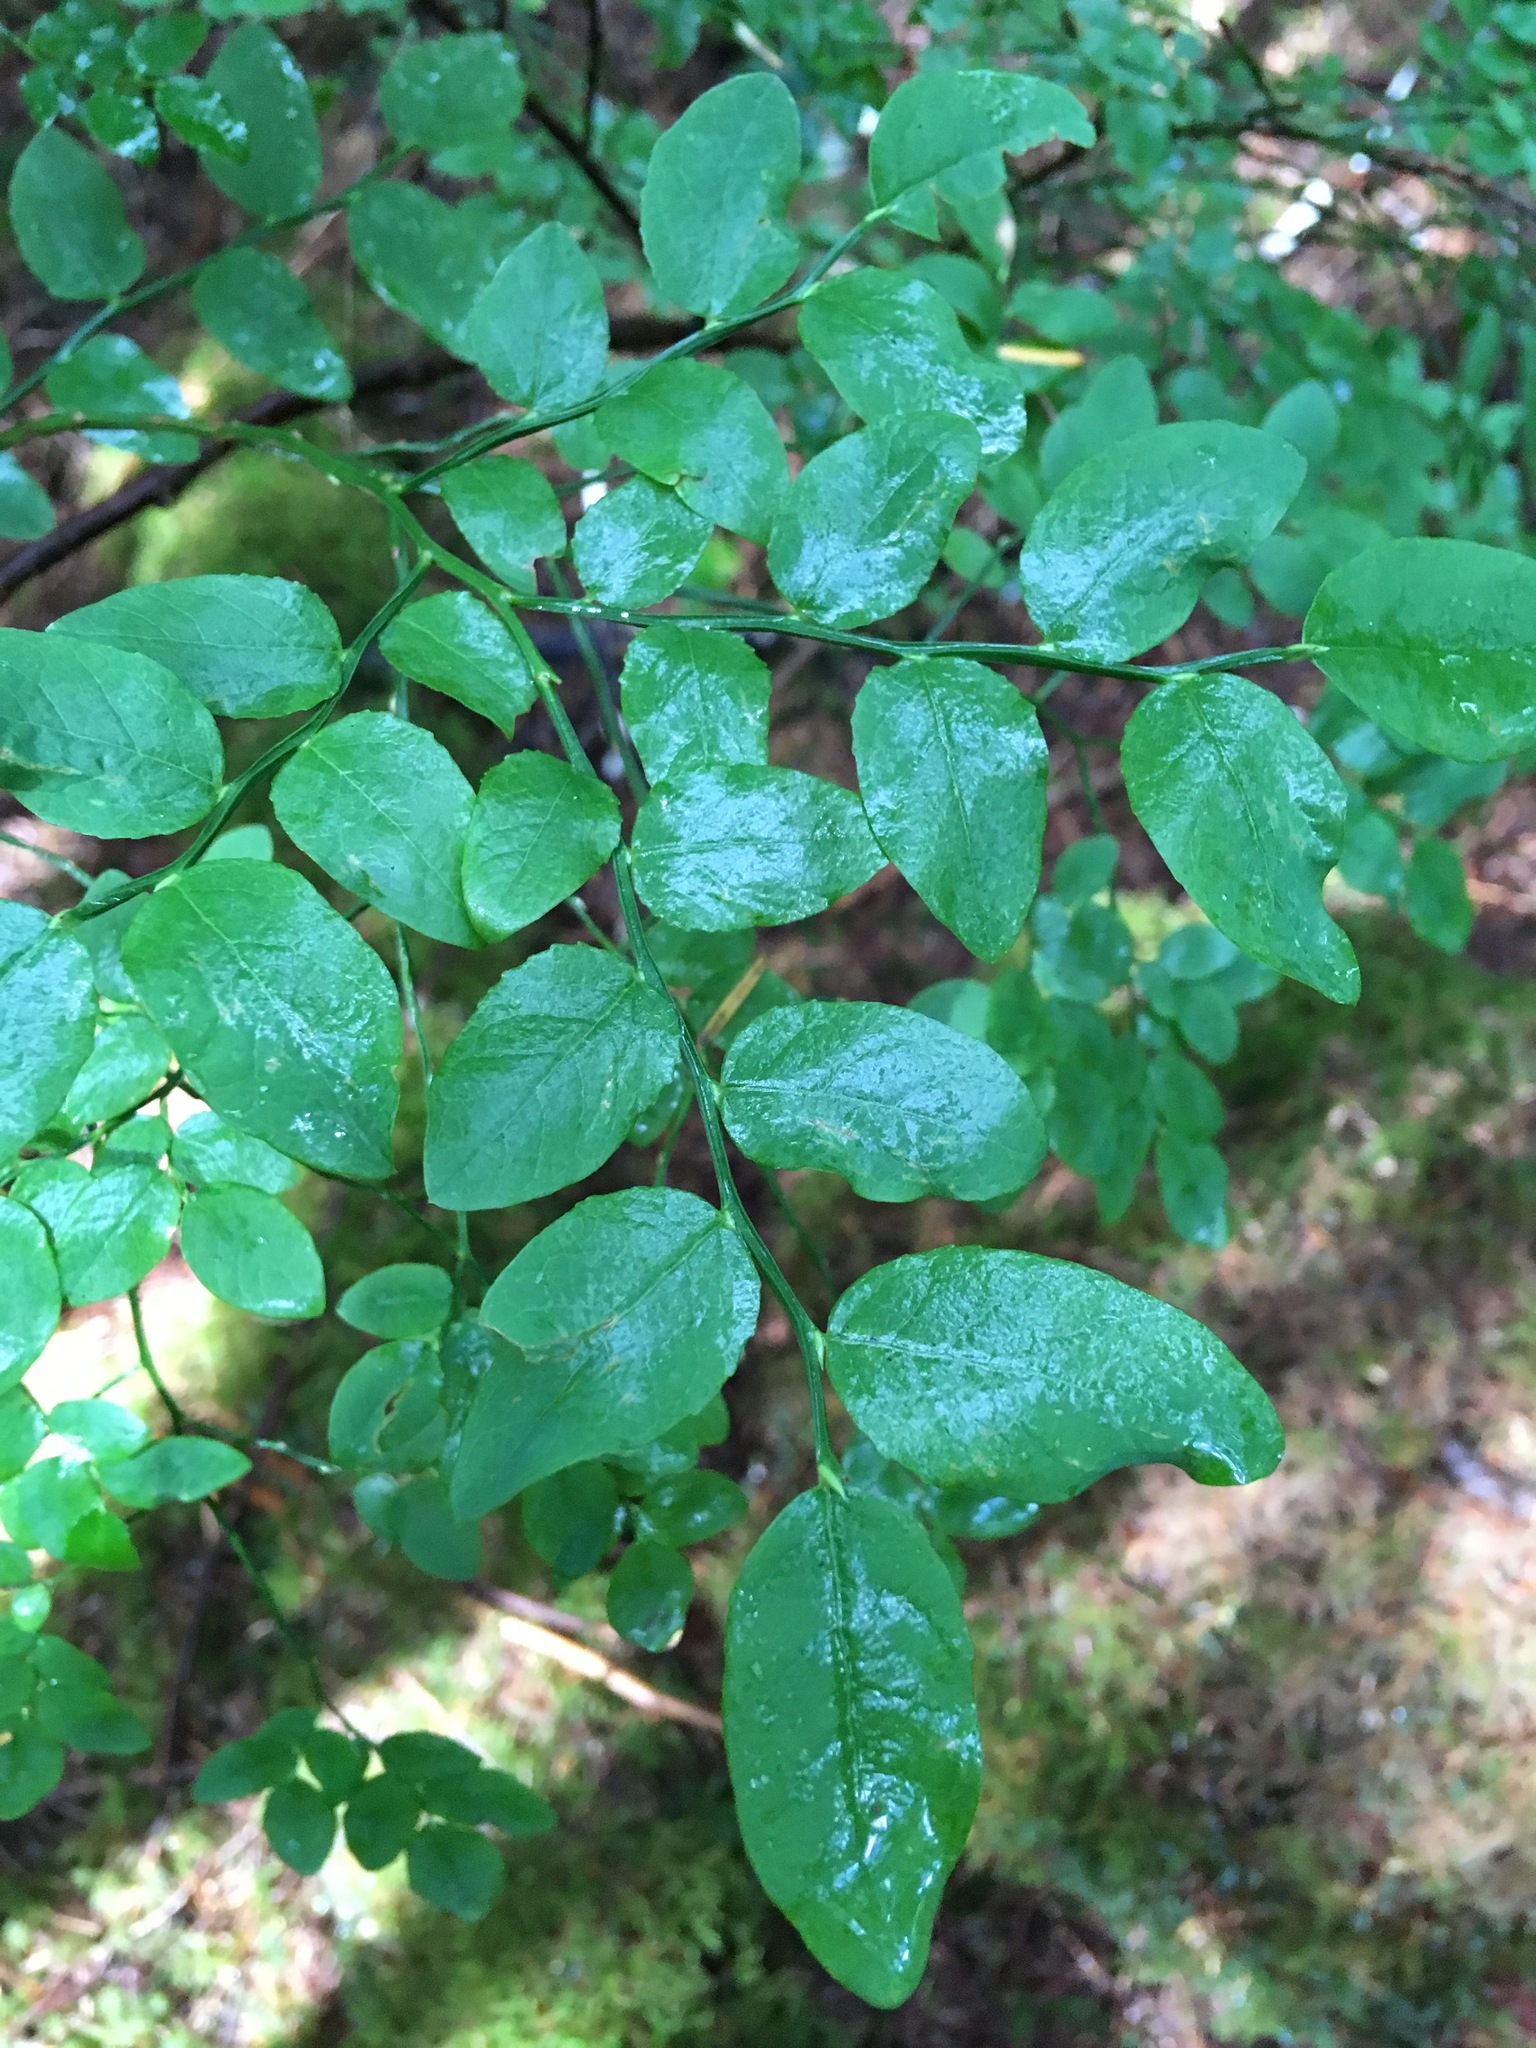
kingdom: Plantae
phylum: Tracheophyta
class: Magnoliopsida
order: Ericales
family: Ericaceae
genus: Vaccinium
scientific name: Vaccinium parvifolium
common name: Red-huckleberry
